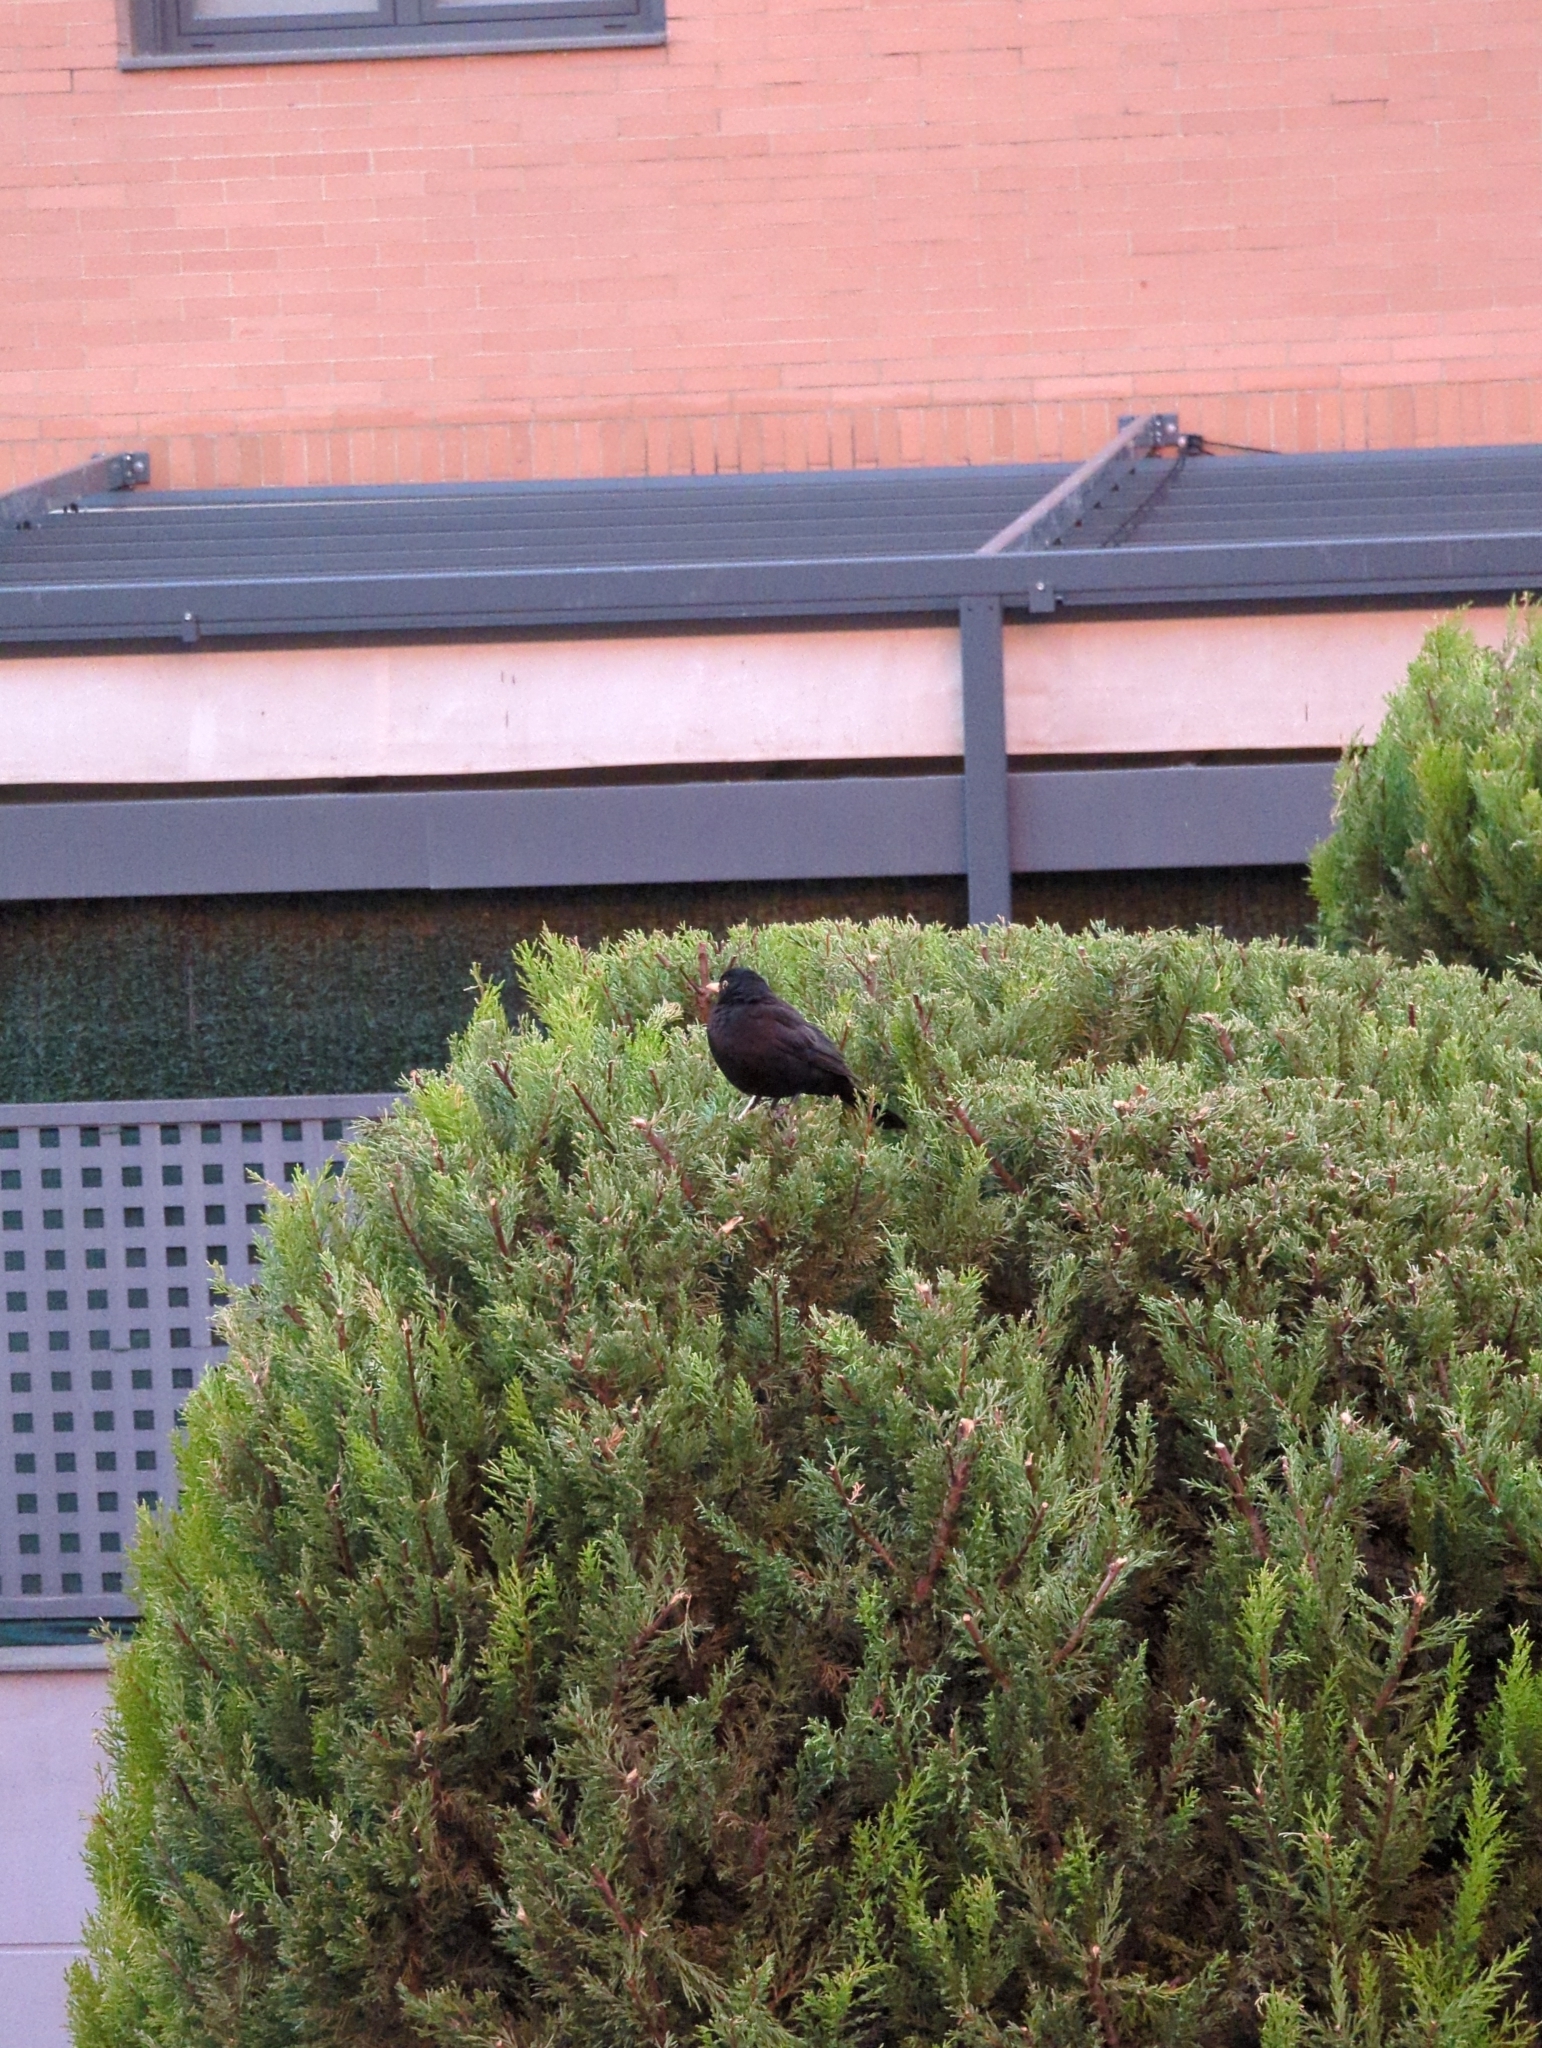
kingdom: Animalia
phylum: Chordata
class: Aves
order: Passeriformes
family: Turdidae
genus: Turdus
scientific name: Turdus merula
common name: Common blackbird
